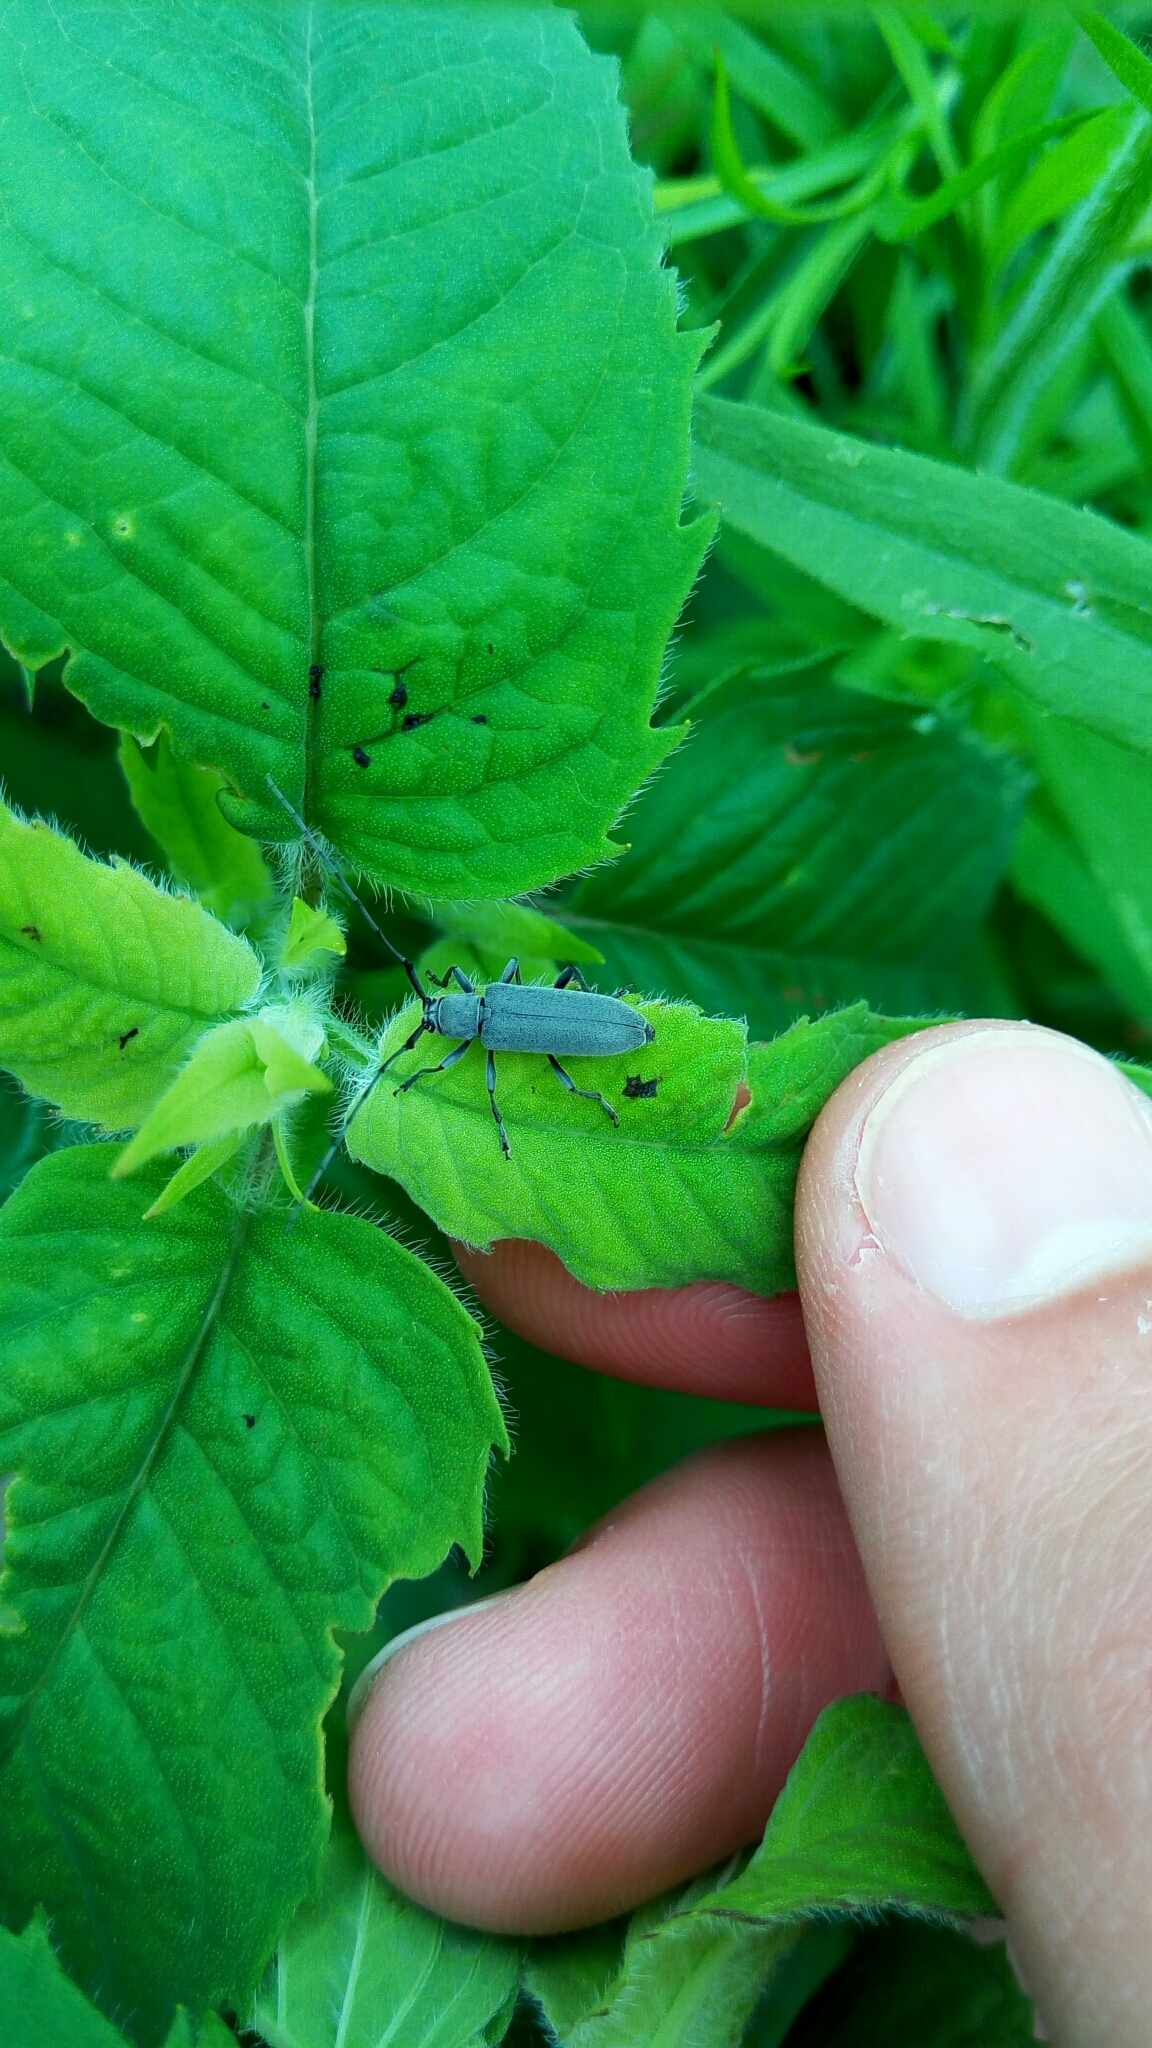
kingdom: Animalia
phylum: Arthropoda
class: Insecta
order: Coleoptera
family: Cerambycidae
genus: Dectes
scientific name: Dectes sayi
